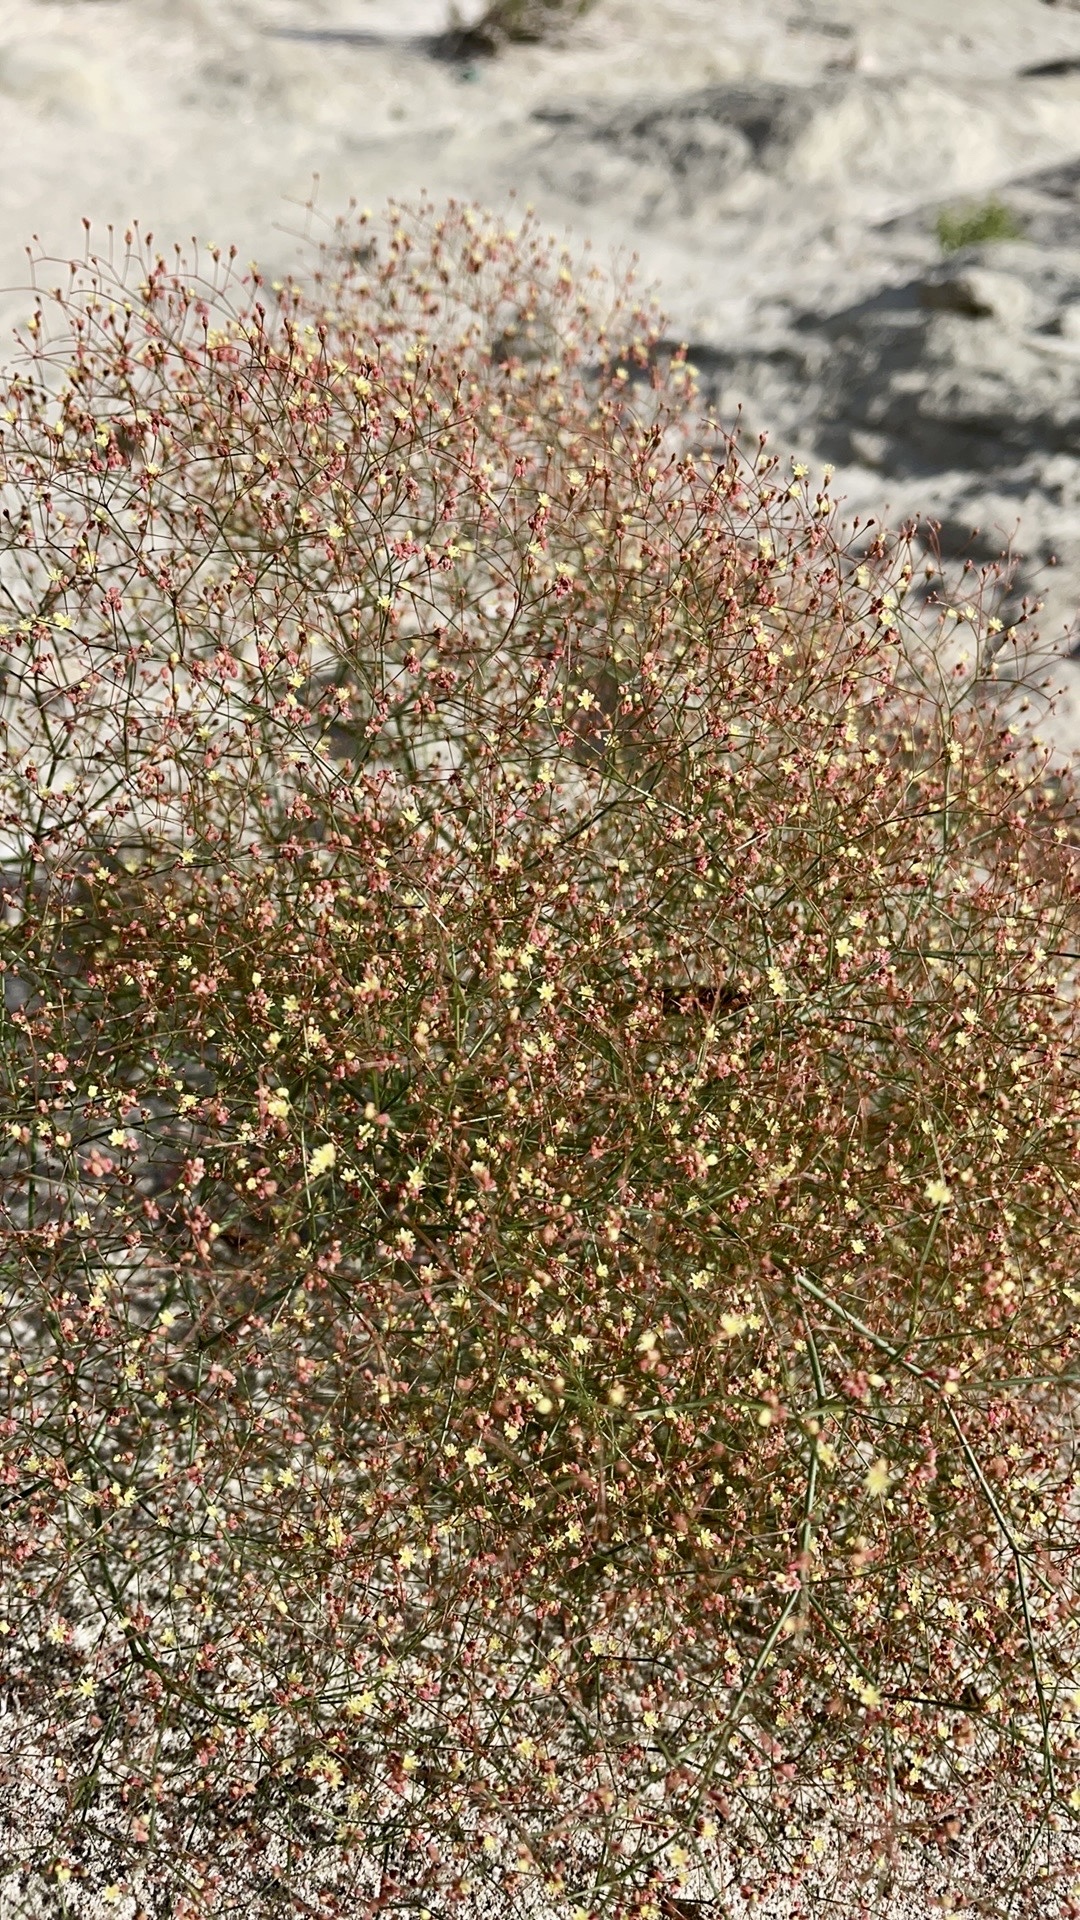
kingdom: Plantae
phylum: Tracheophyta
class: Magnoliopsida
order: Caryophyllales
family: Polygonaceae
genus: Eriogonum
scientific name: Eriogonum thomasii
